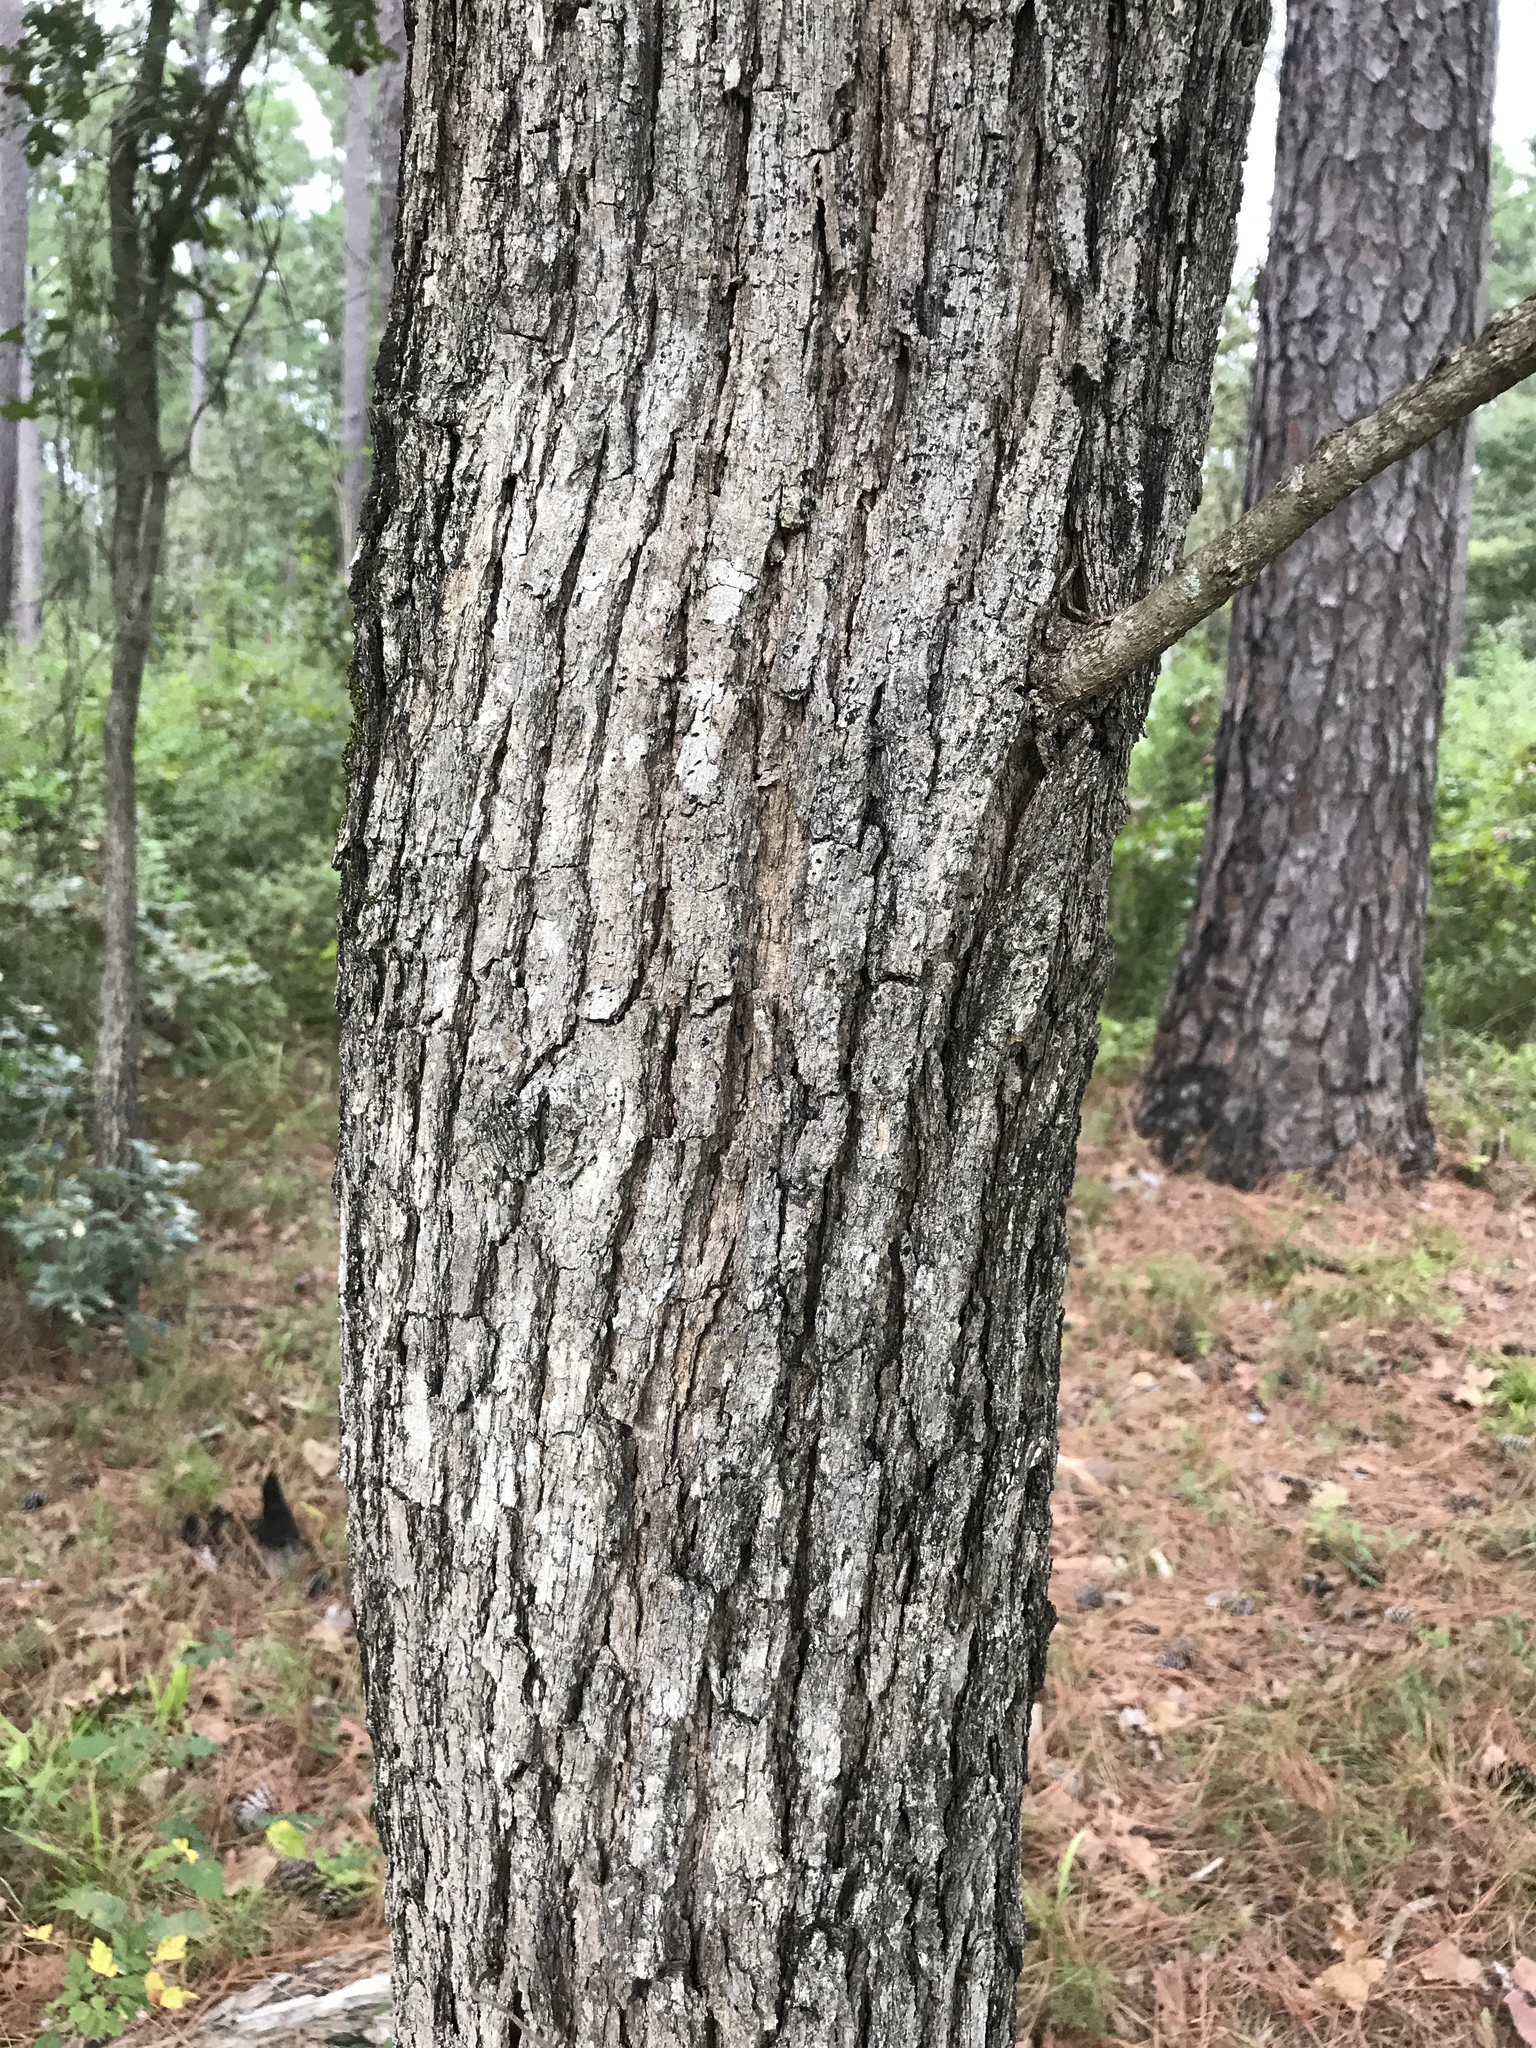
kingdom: Plantae
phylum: Tracheophyta
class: Magnoliopsida
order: Fagales
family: Fagaceae
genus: Quercus
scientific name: Quercus stellata
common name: Post oak
